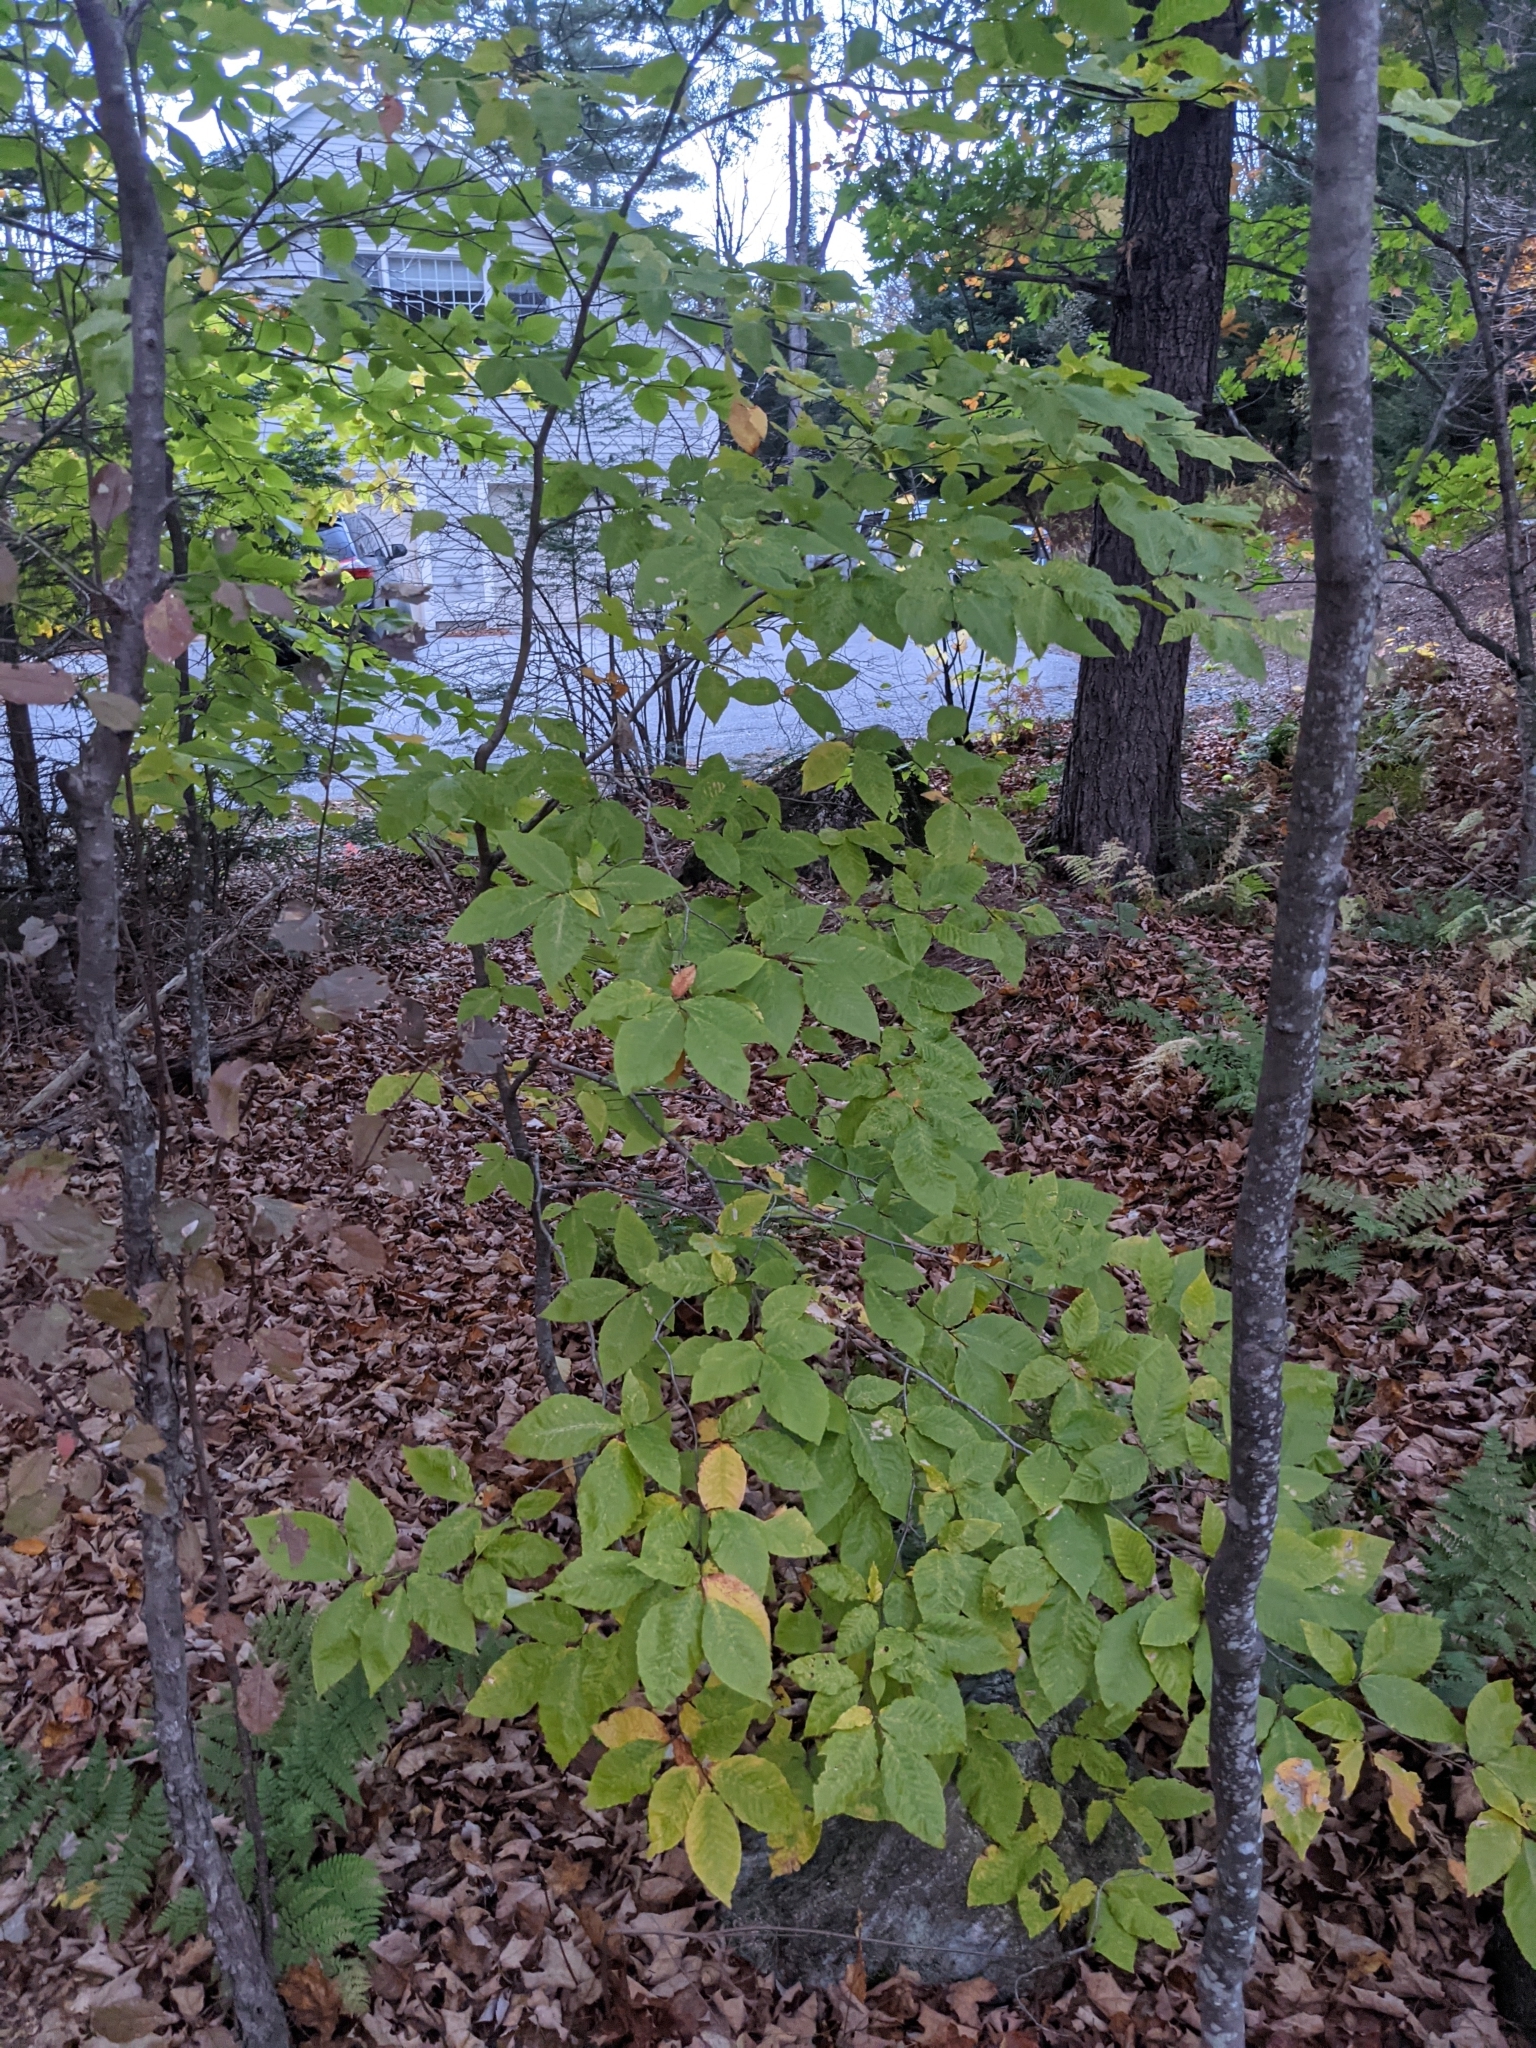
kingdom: Plantae
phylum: Tracheophyta
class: Magnoliopsida
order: Fagales
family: Fagaceae
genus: Fagus
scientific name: Fagus grandifolia
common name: American beech
